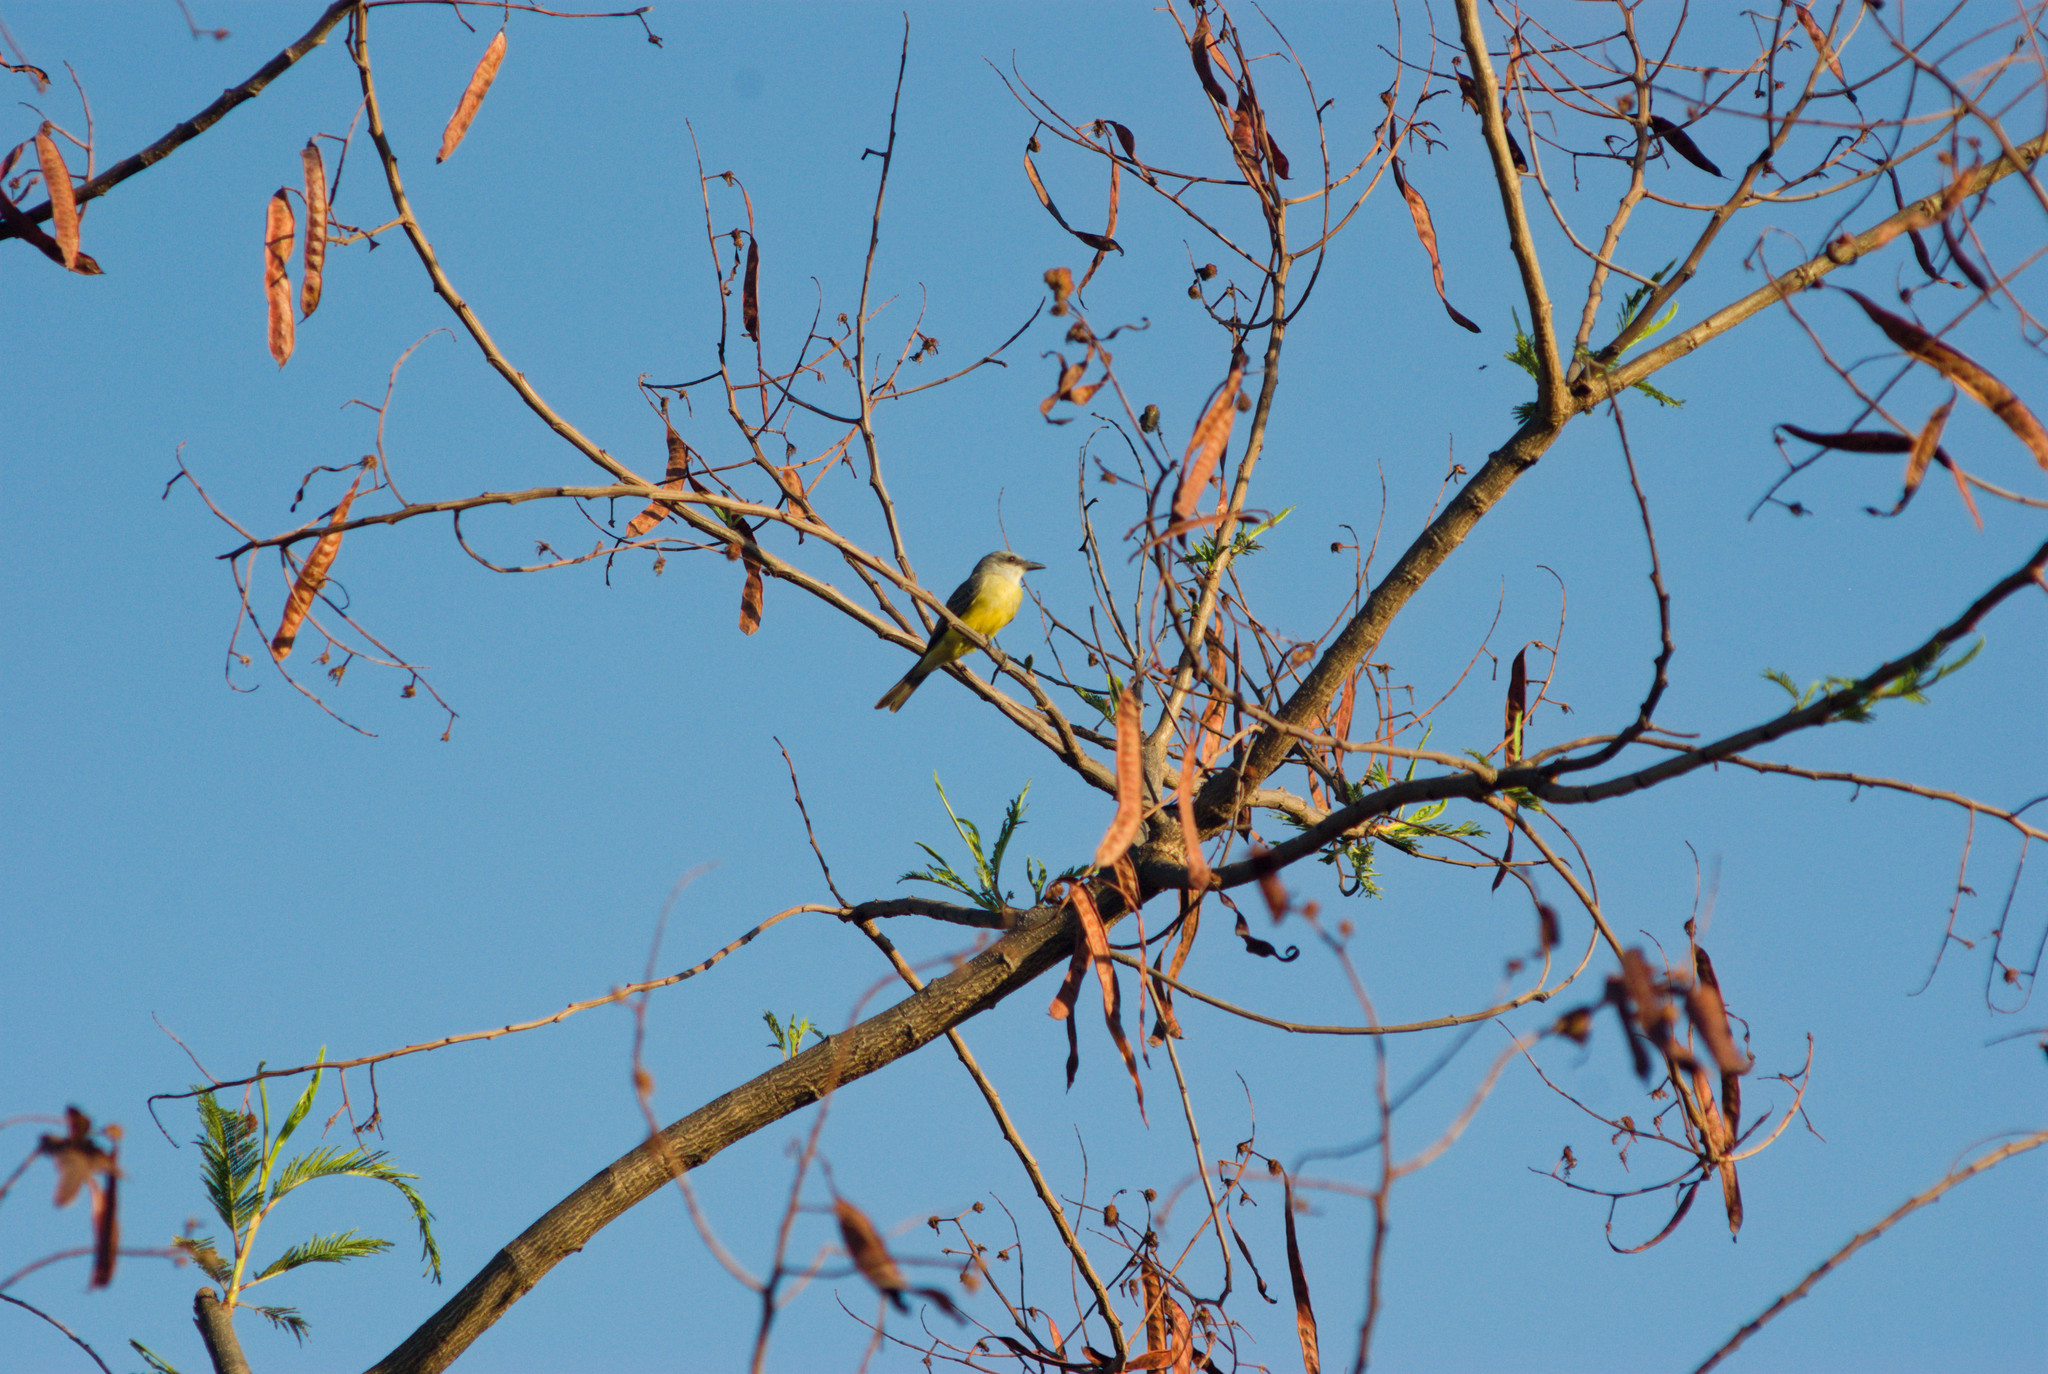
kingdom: Animalia
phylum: Chordata
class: Aves
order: Passeriformes
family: Tyrannidae
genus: Tyrannus
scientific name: Tyrannus melancholicus
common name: Tropical kingbird
